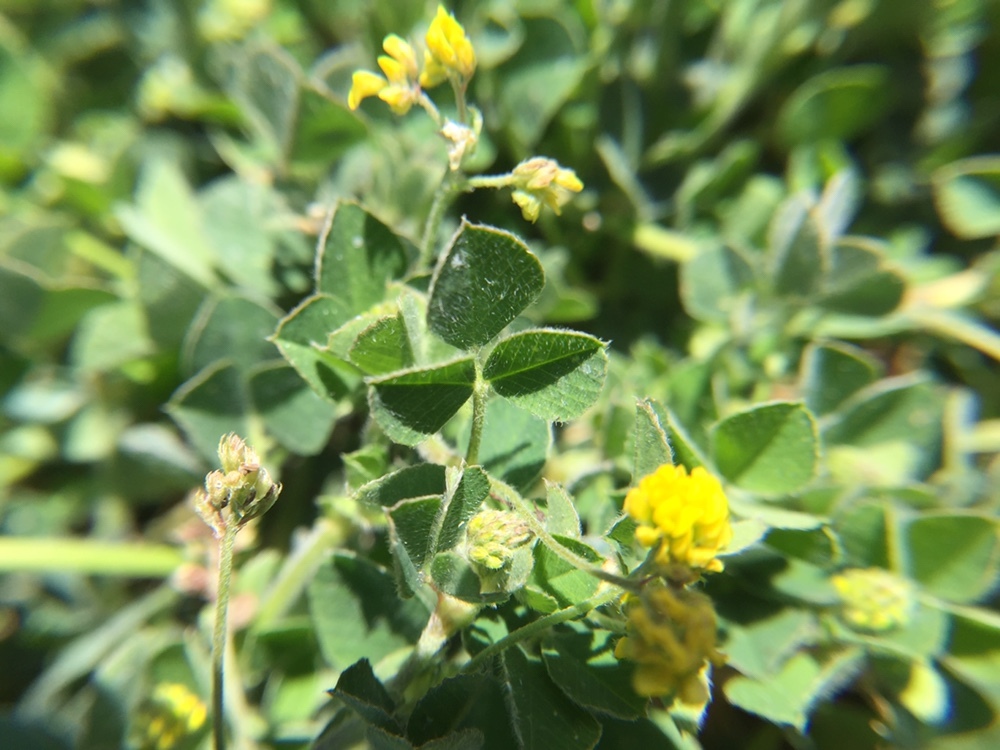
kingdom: Plantae
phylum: Tracheophyta
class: Magnoliopsida
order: Fabales
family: Fabaceae
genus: Medicago
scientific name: Medicago lupulina
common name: Black medick
